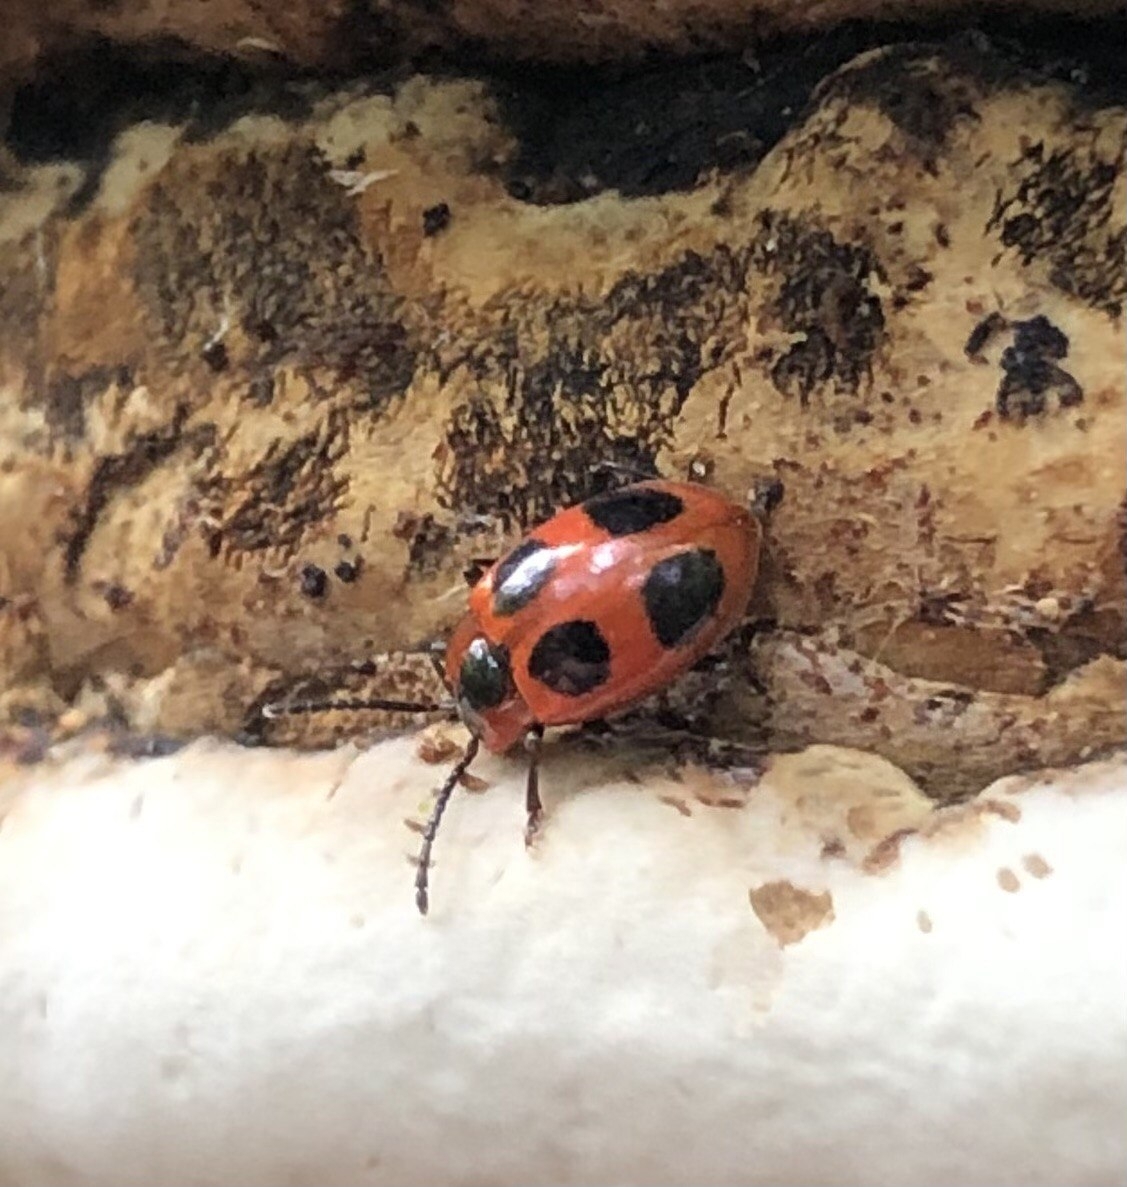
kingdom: Animalia
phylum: Arthropoda
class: Insecta
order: Coleoptera
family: Endomychidae
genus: Endomychus
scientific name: Endomychus coccineus
